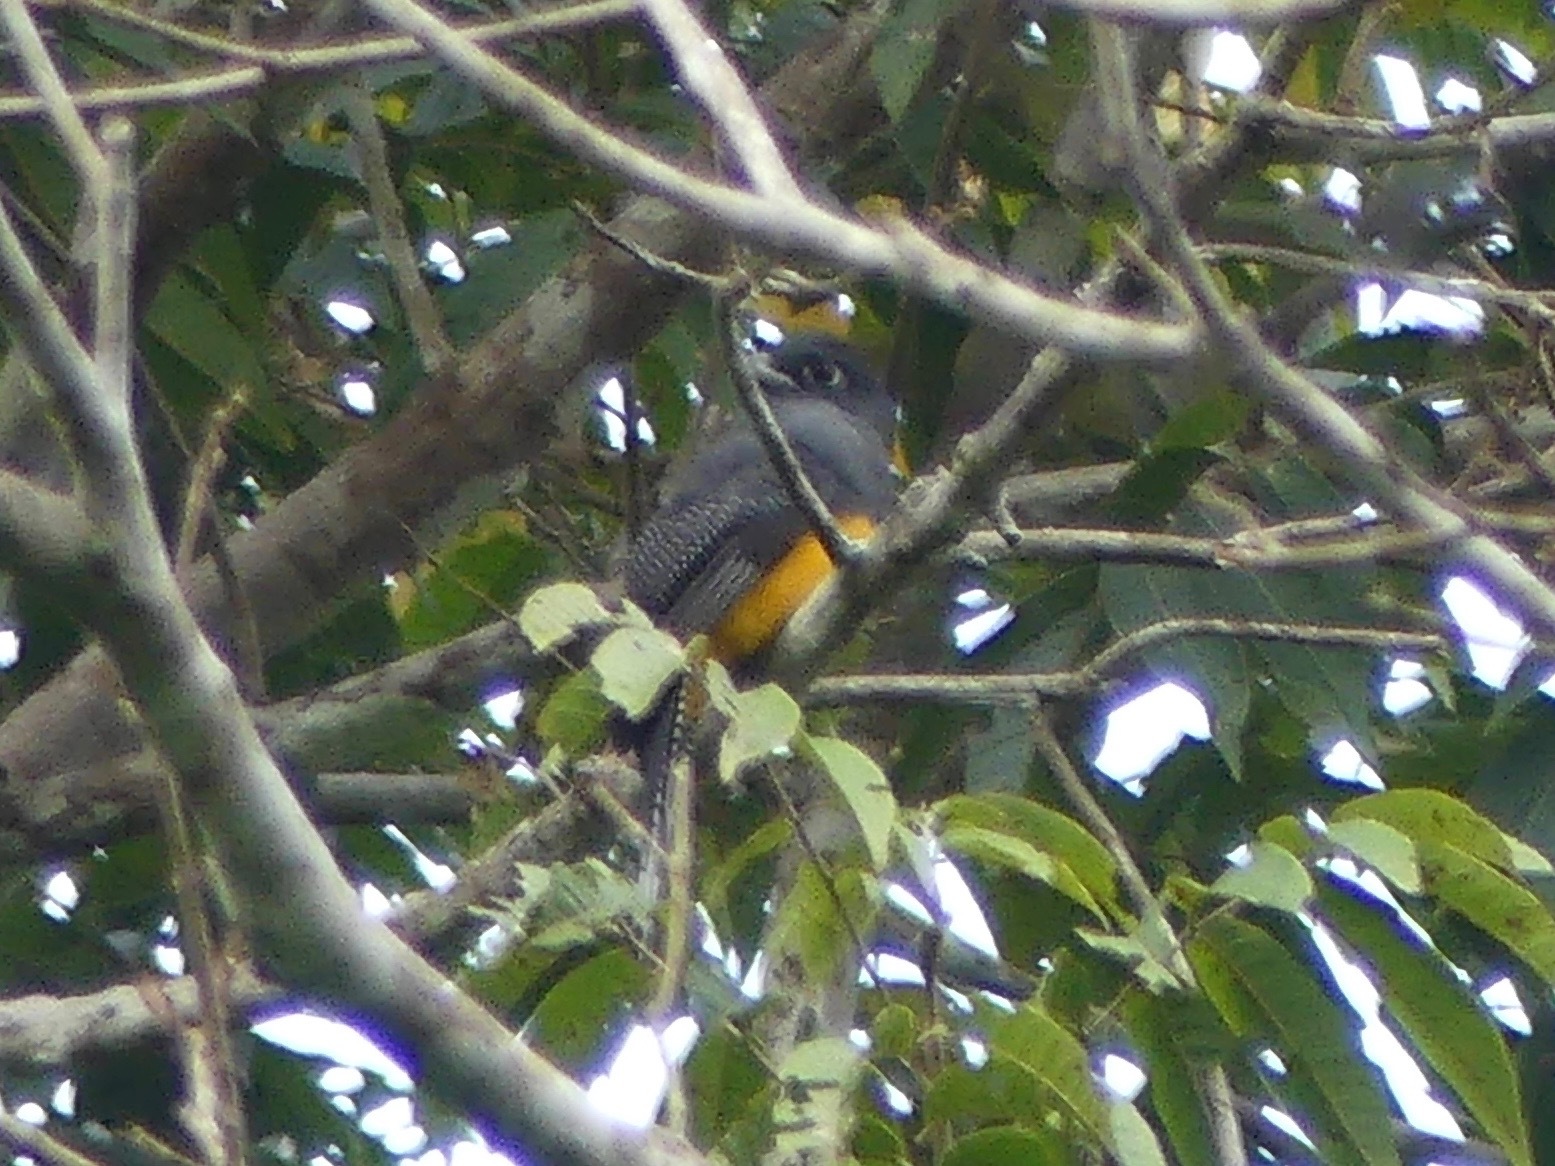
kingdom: Animalia
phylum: Chordata
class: Aves
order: Trogoniformes
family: Trogonidae
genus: Trogon
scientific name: Trogon ramonianus
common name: Amazonian trogon
